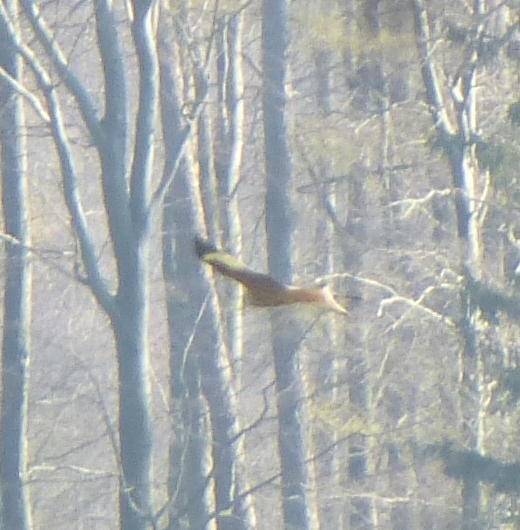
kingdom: Animalia
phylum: Chordata
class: Aves
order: Accipitriformes
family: Accipitridae
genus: Milvus
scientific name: Milvus milvus
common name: Red kite
